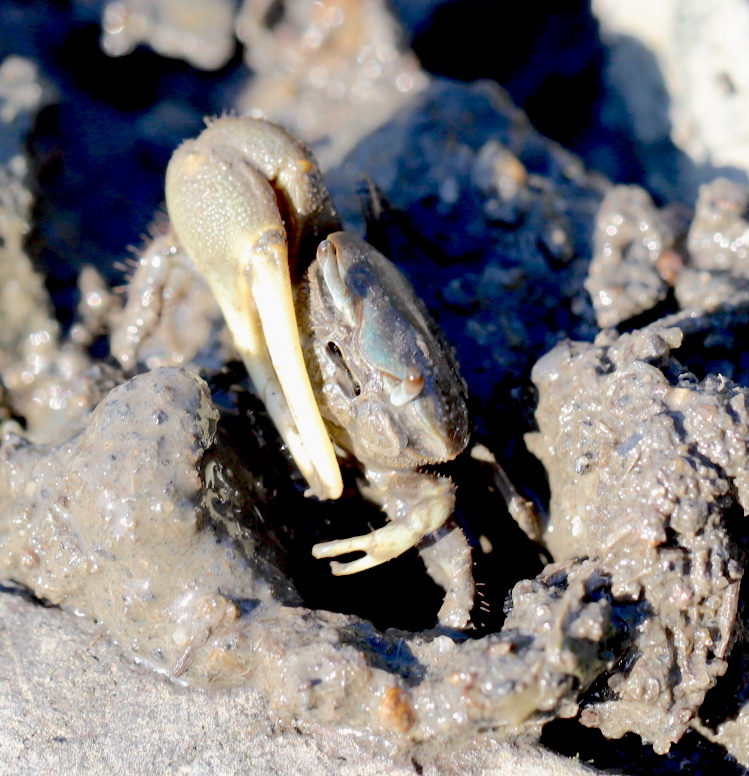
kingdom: Animalia
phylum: Arthropoda
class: Malacostraca
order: Decapoda
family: Ocypodidae
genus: Minuca
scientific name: Minuca pugnax
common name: Mud fiddler crab
